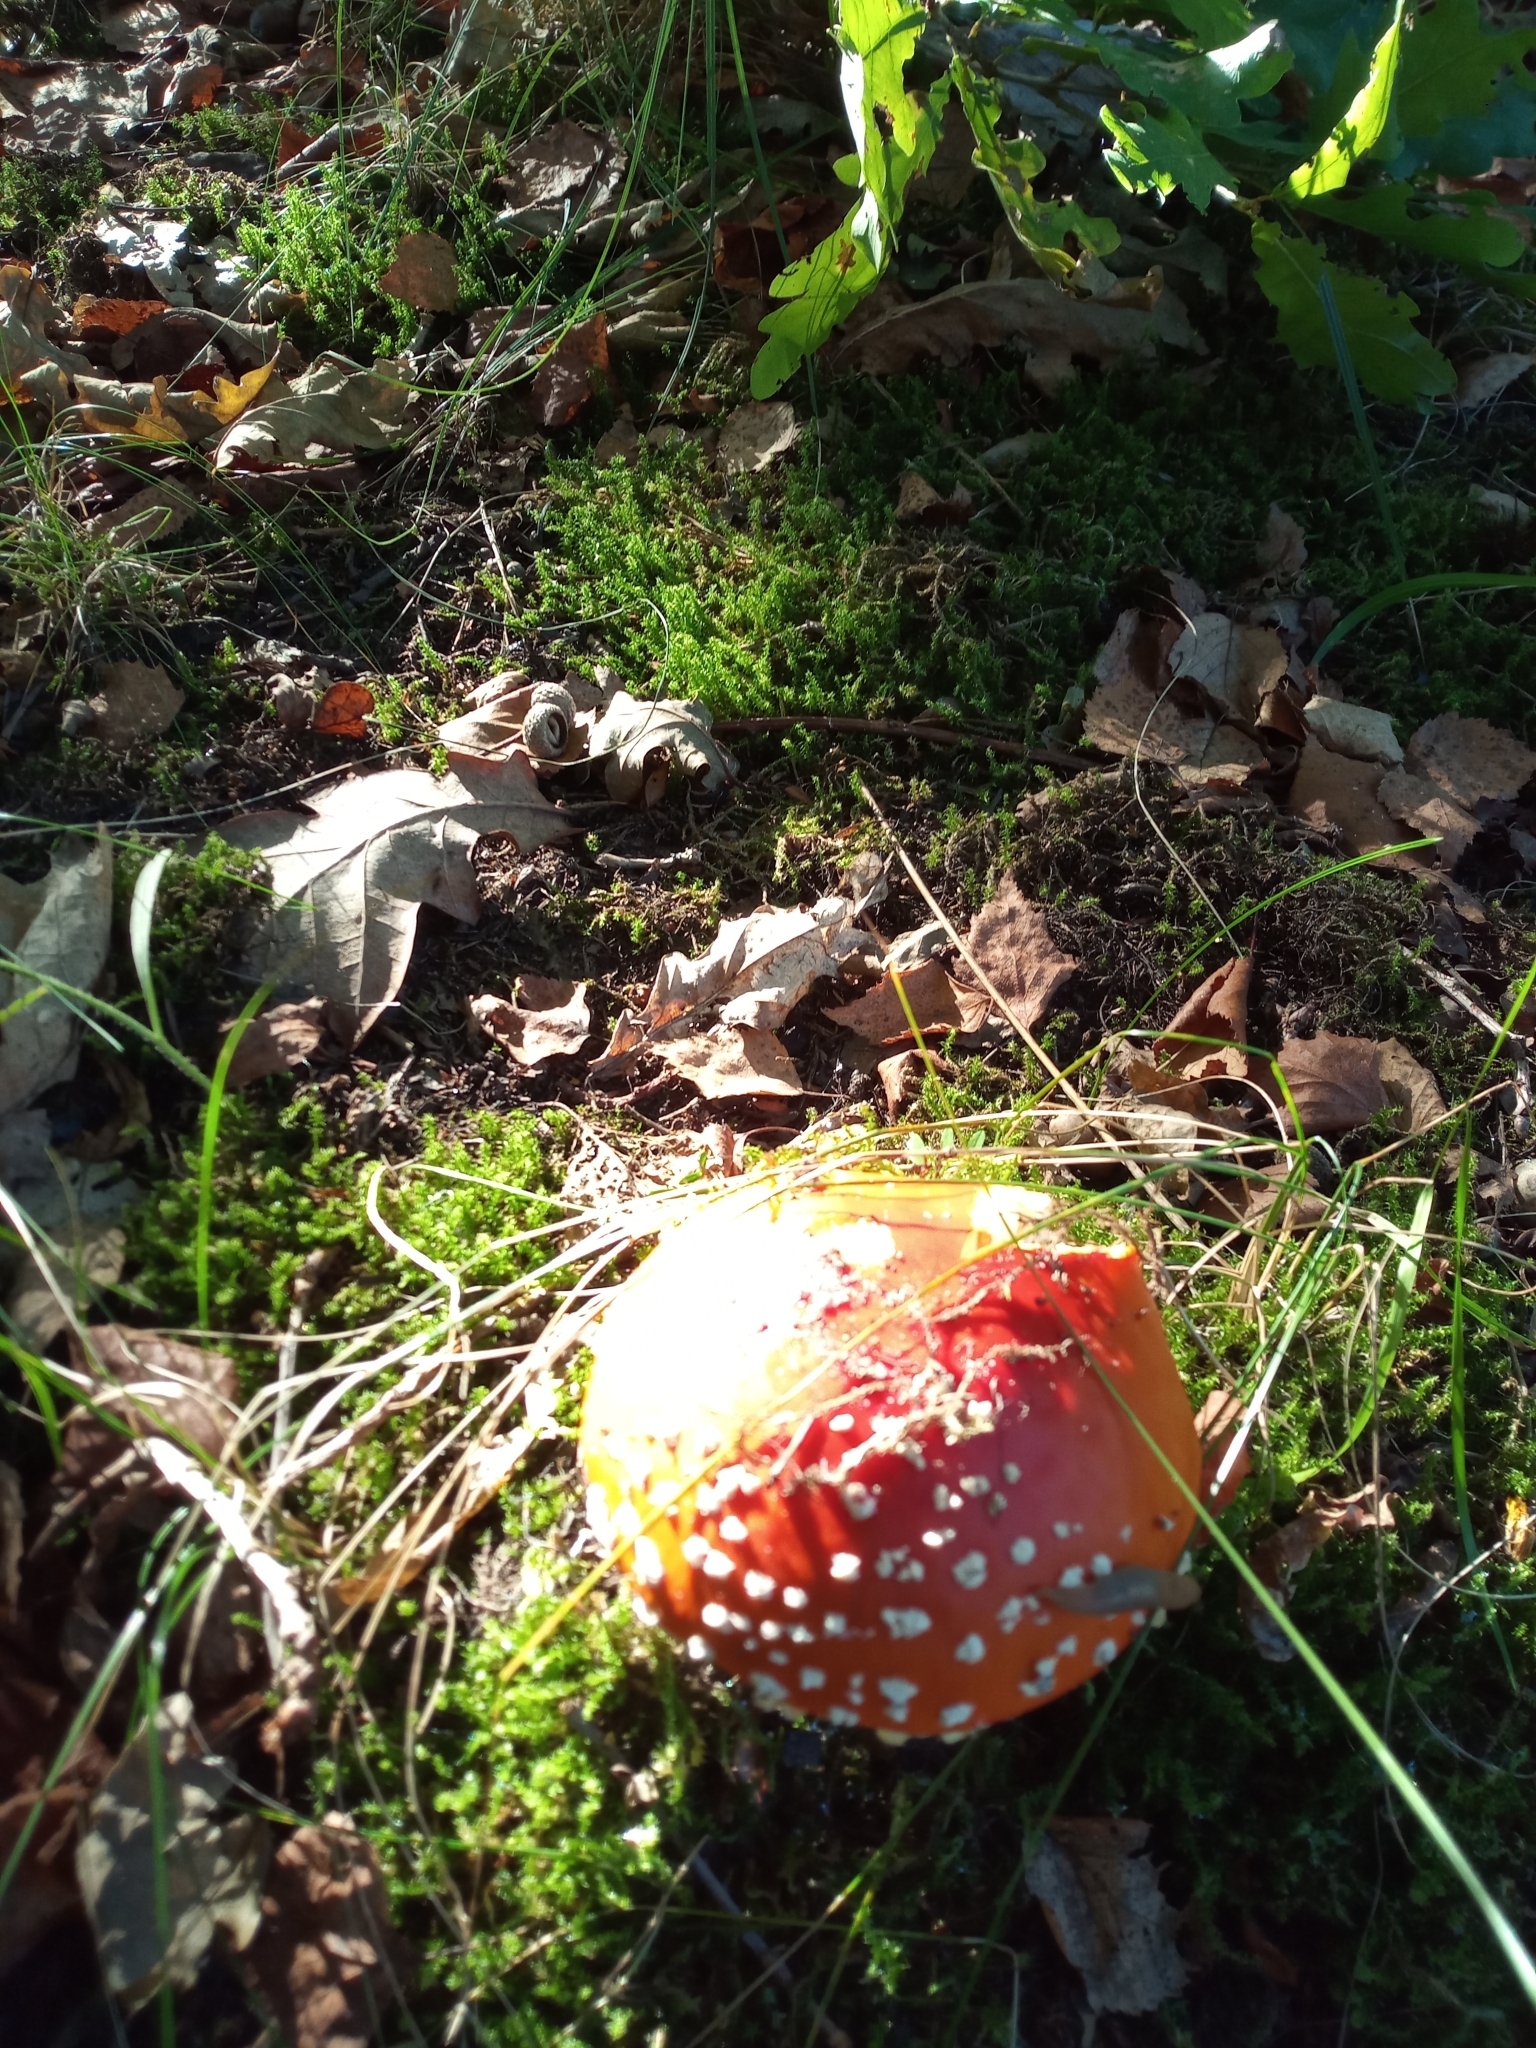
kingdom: Fungi
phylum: Basidiomycota
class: Agaricomycetes
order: Agaricales
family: Amanitaceae
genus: Amanita
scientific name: Amanita muscaria
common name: Fly agaric
